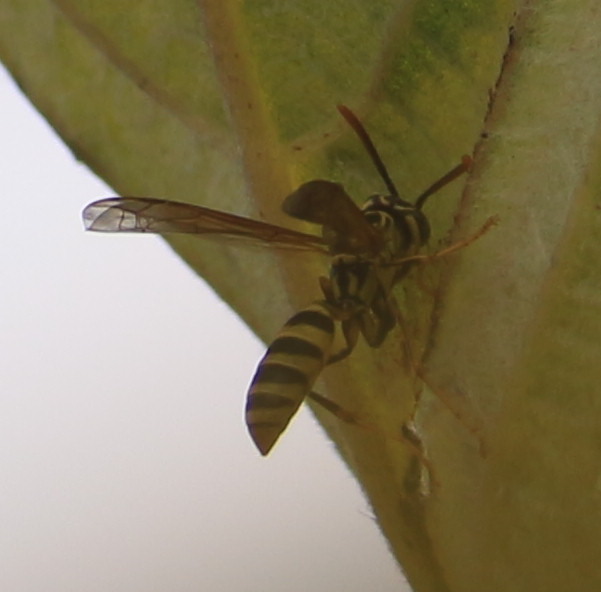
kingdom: Animalia
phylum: Arthropoda
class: Insecta
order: Hymenoptera
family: Vespidae
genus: Agelaia
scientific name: Agelaia areata
